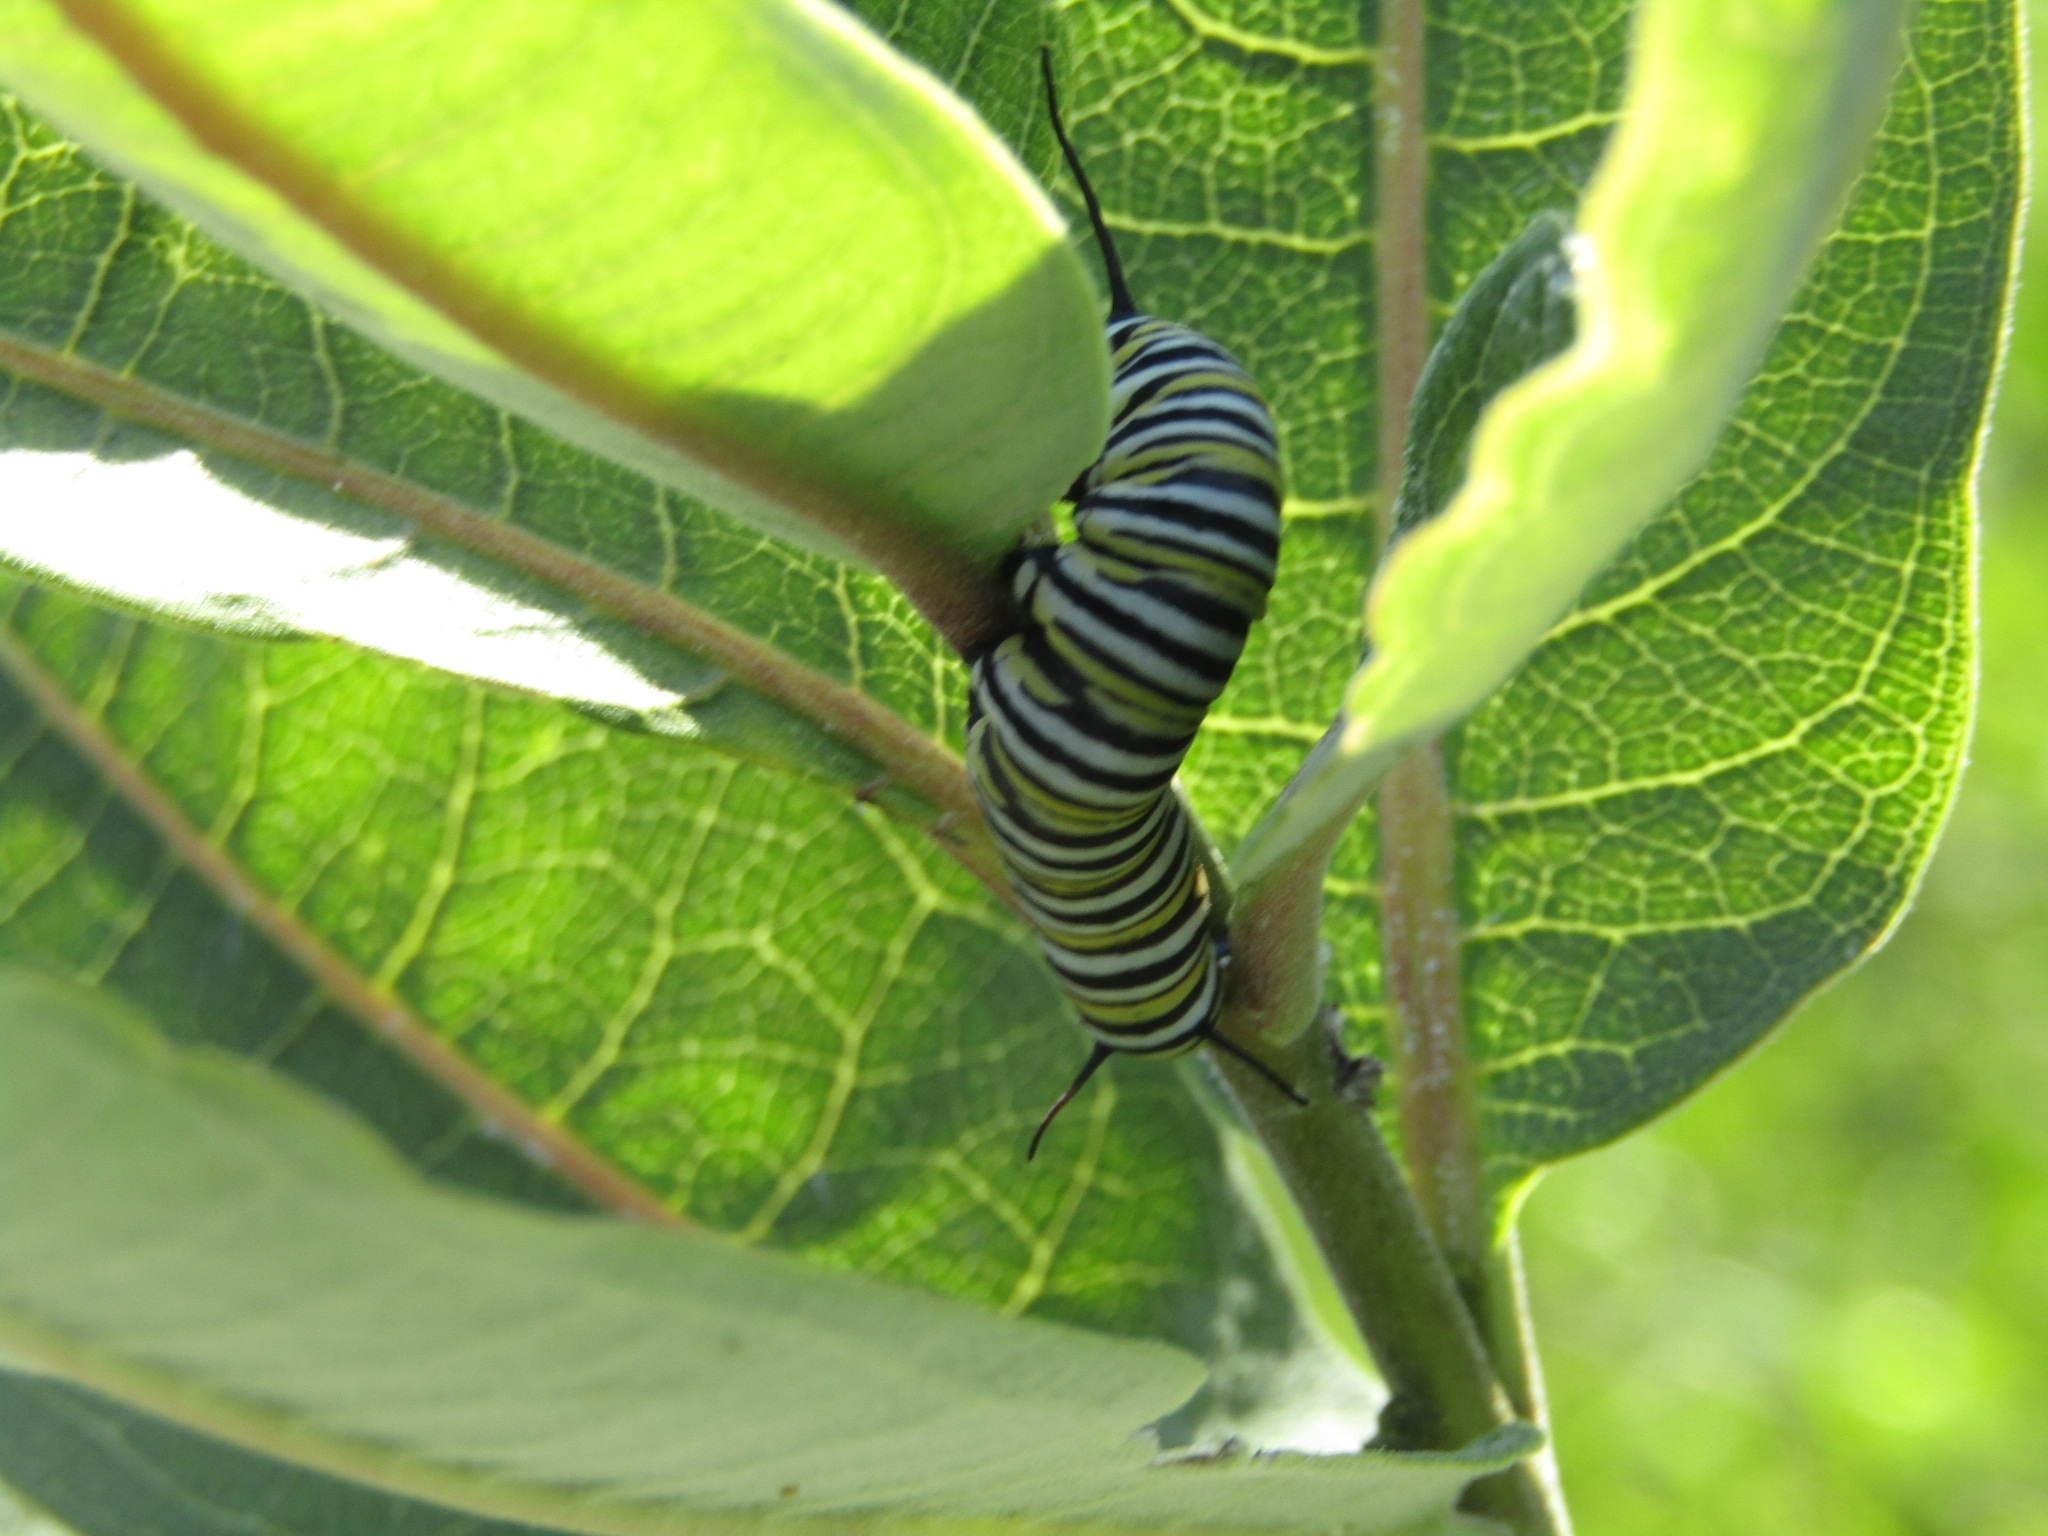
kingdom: Animalia
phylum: Arthropoda
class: Insecta
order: Lepidoptera
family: Nymphalidae
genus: Danaus
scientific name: Danaus plexippus
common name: Monarch
